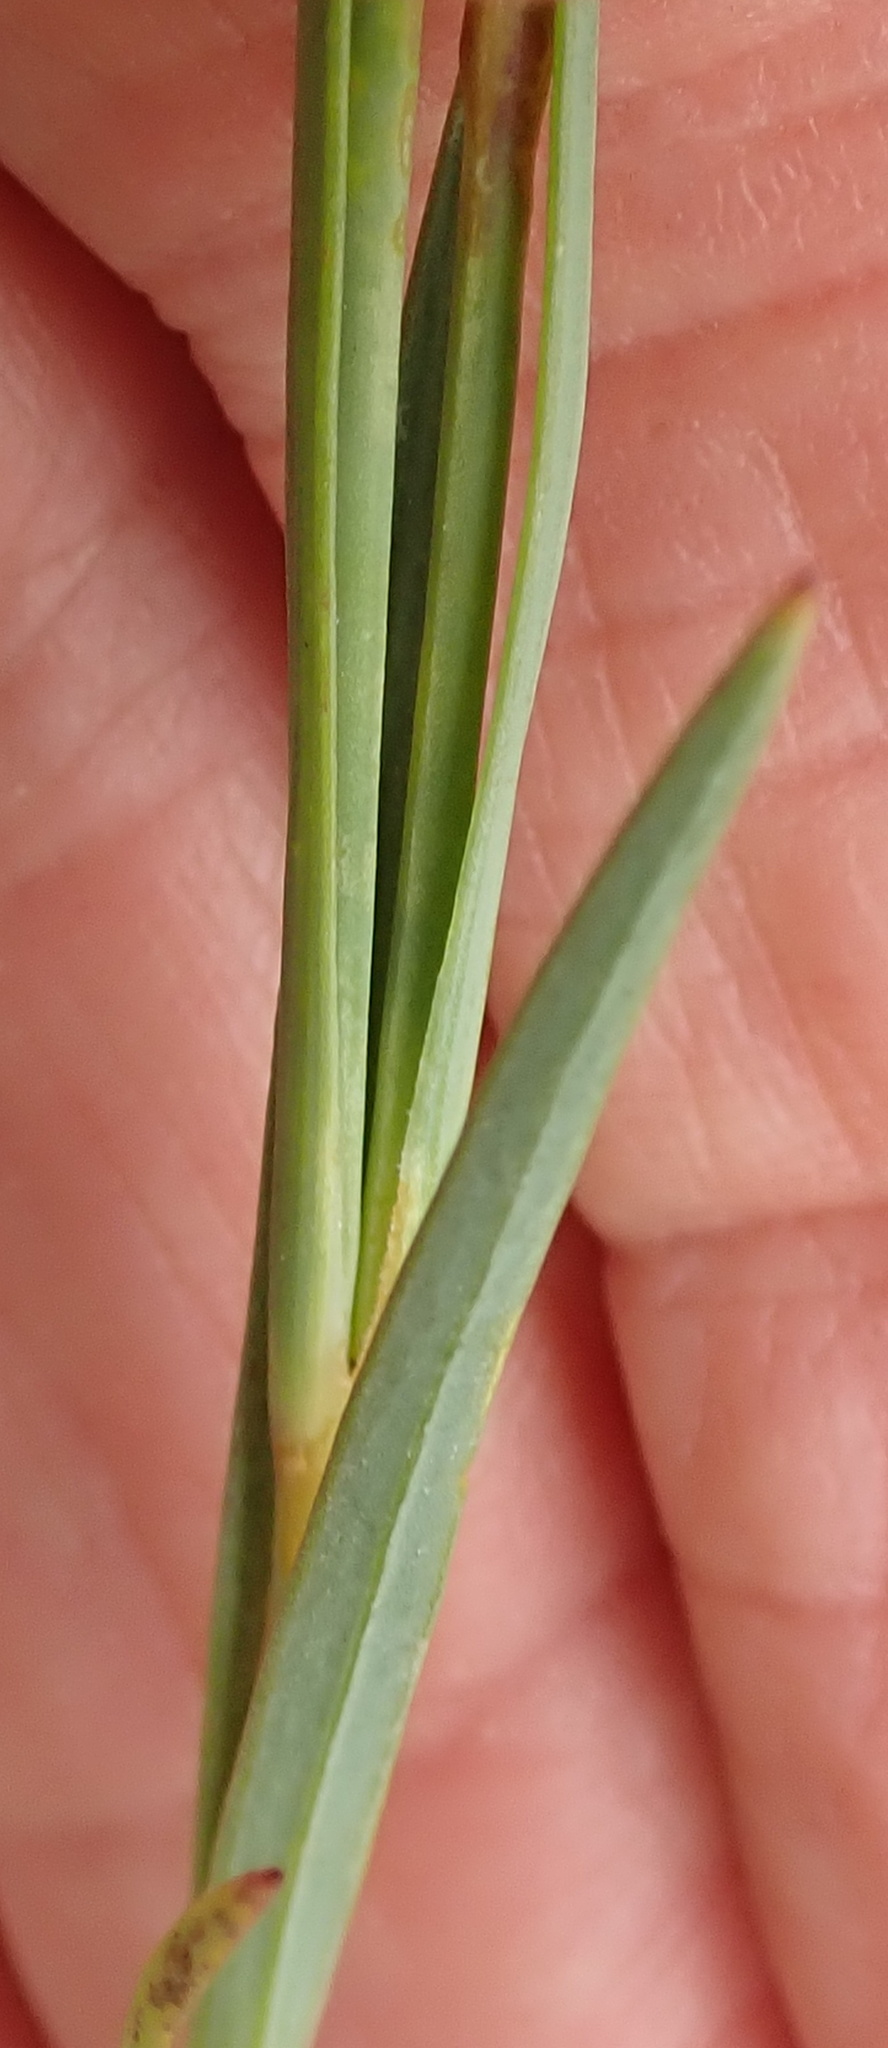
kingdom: Plantae
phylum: Tracheophyta
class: Magnoliopsida
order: Caryophyllales
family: Caryophyllaceae
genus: Dianthus
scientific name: Dianthus basuticus
